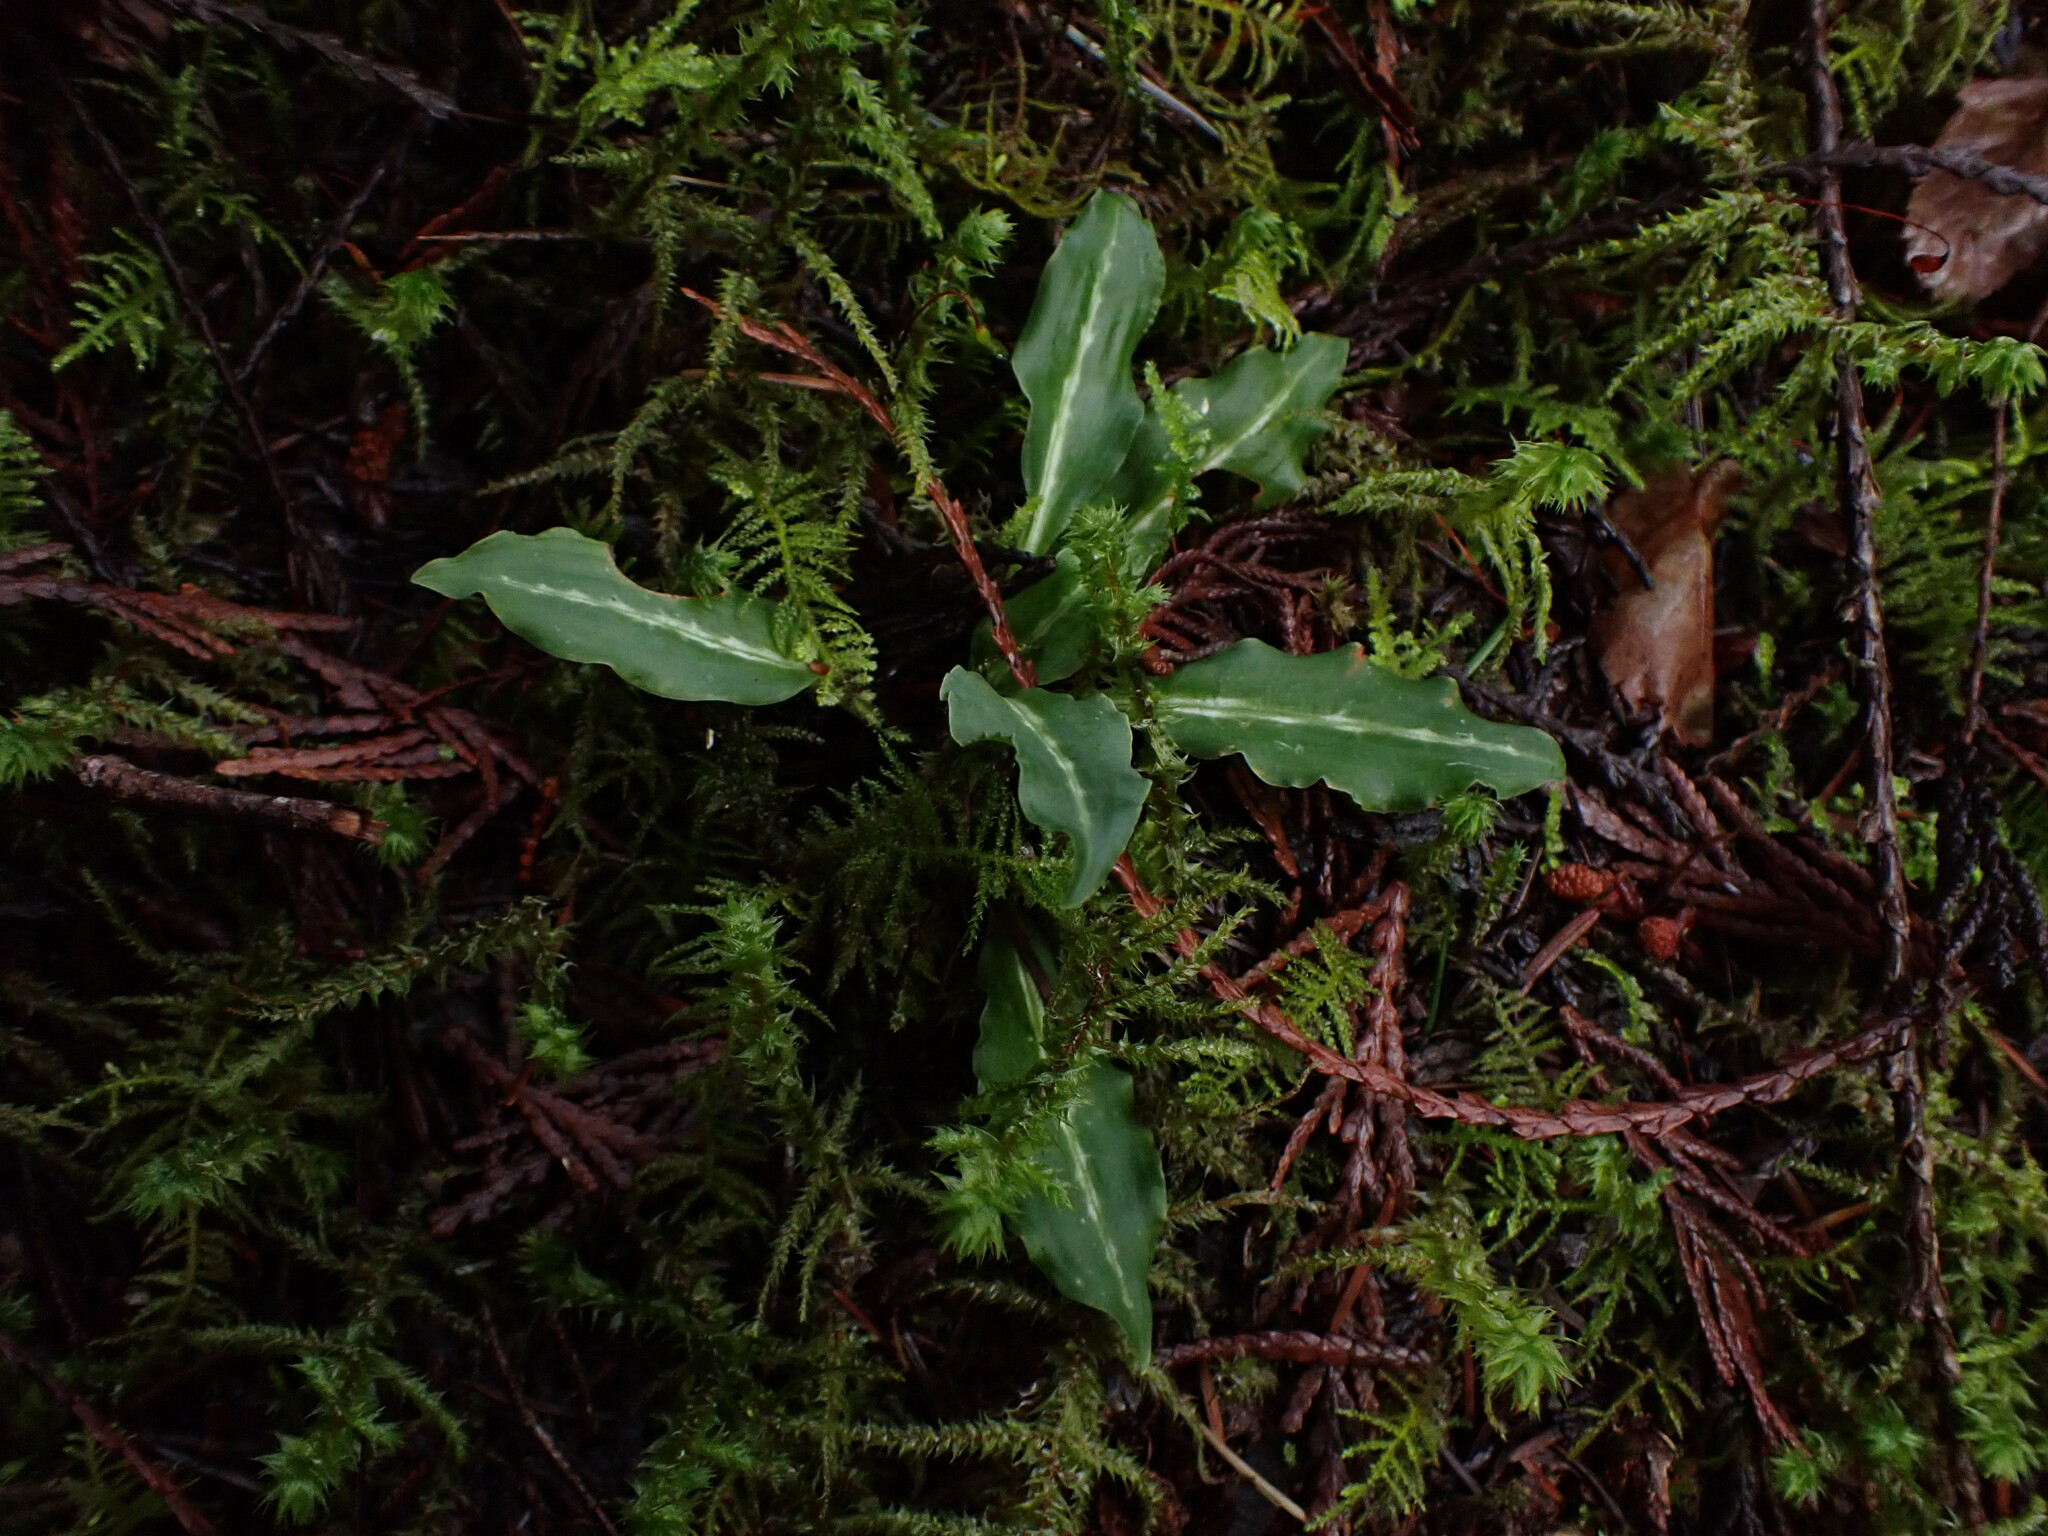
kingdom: Plantae
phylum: Tracheophyta
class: Liliopsida
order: Asparagales
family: Orchidaceae
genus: Goodyera
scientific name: Goodyera oblongifolia
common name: Giant rattlesnake-plantain
